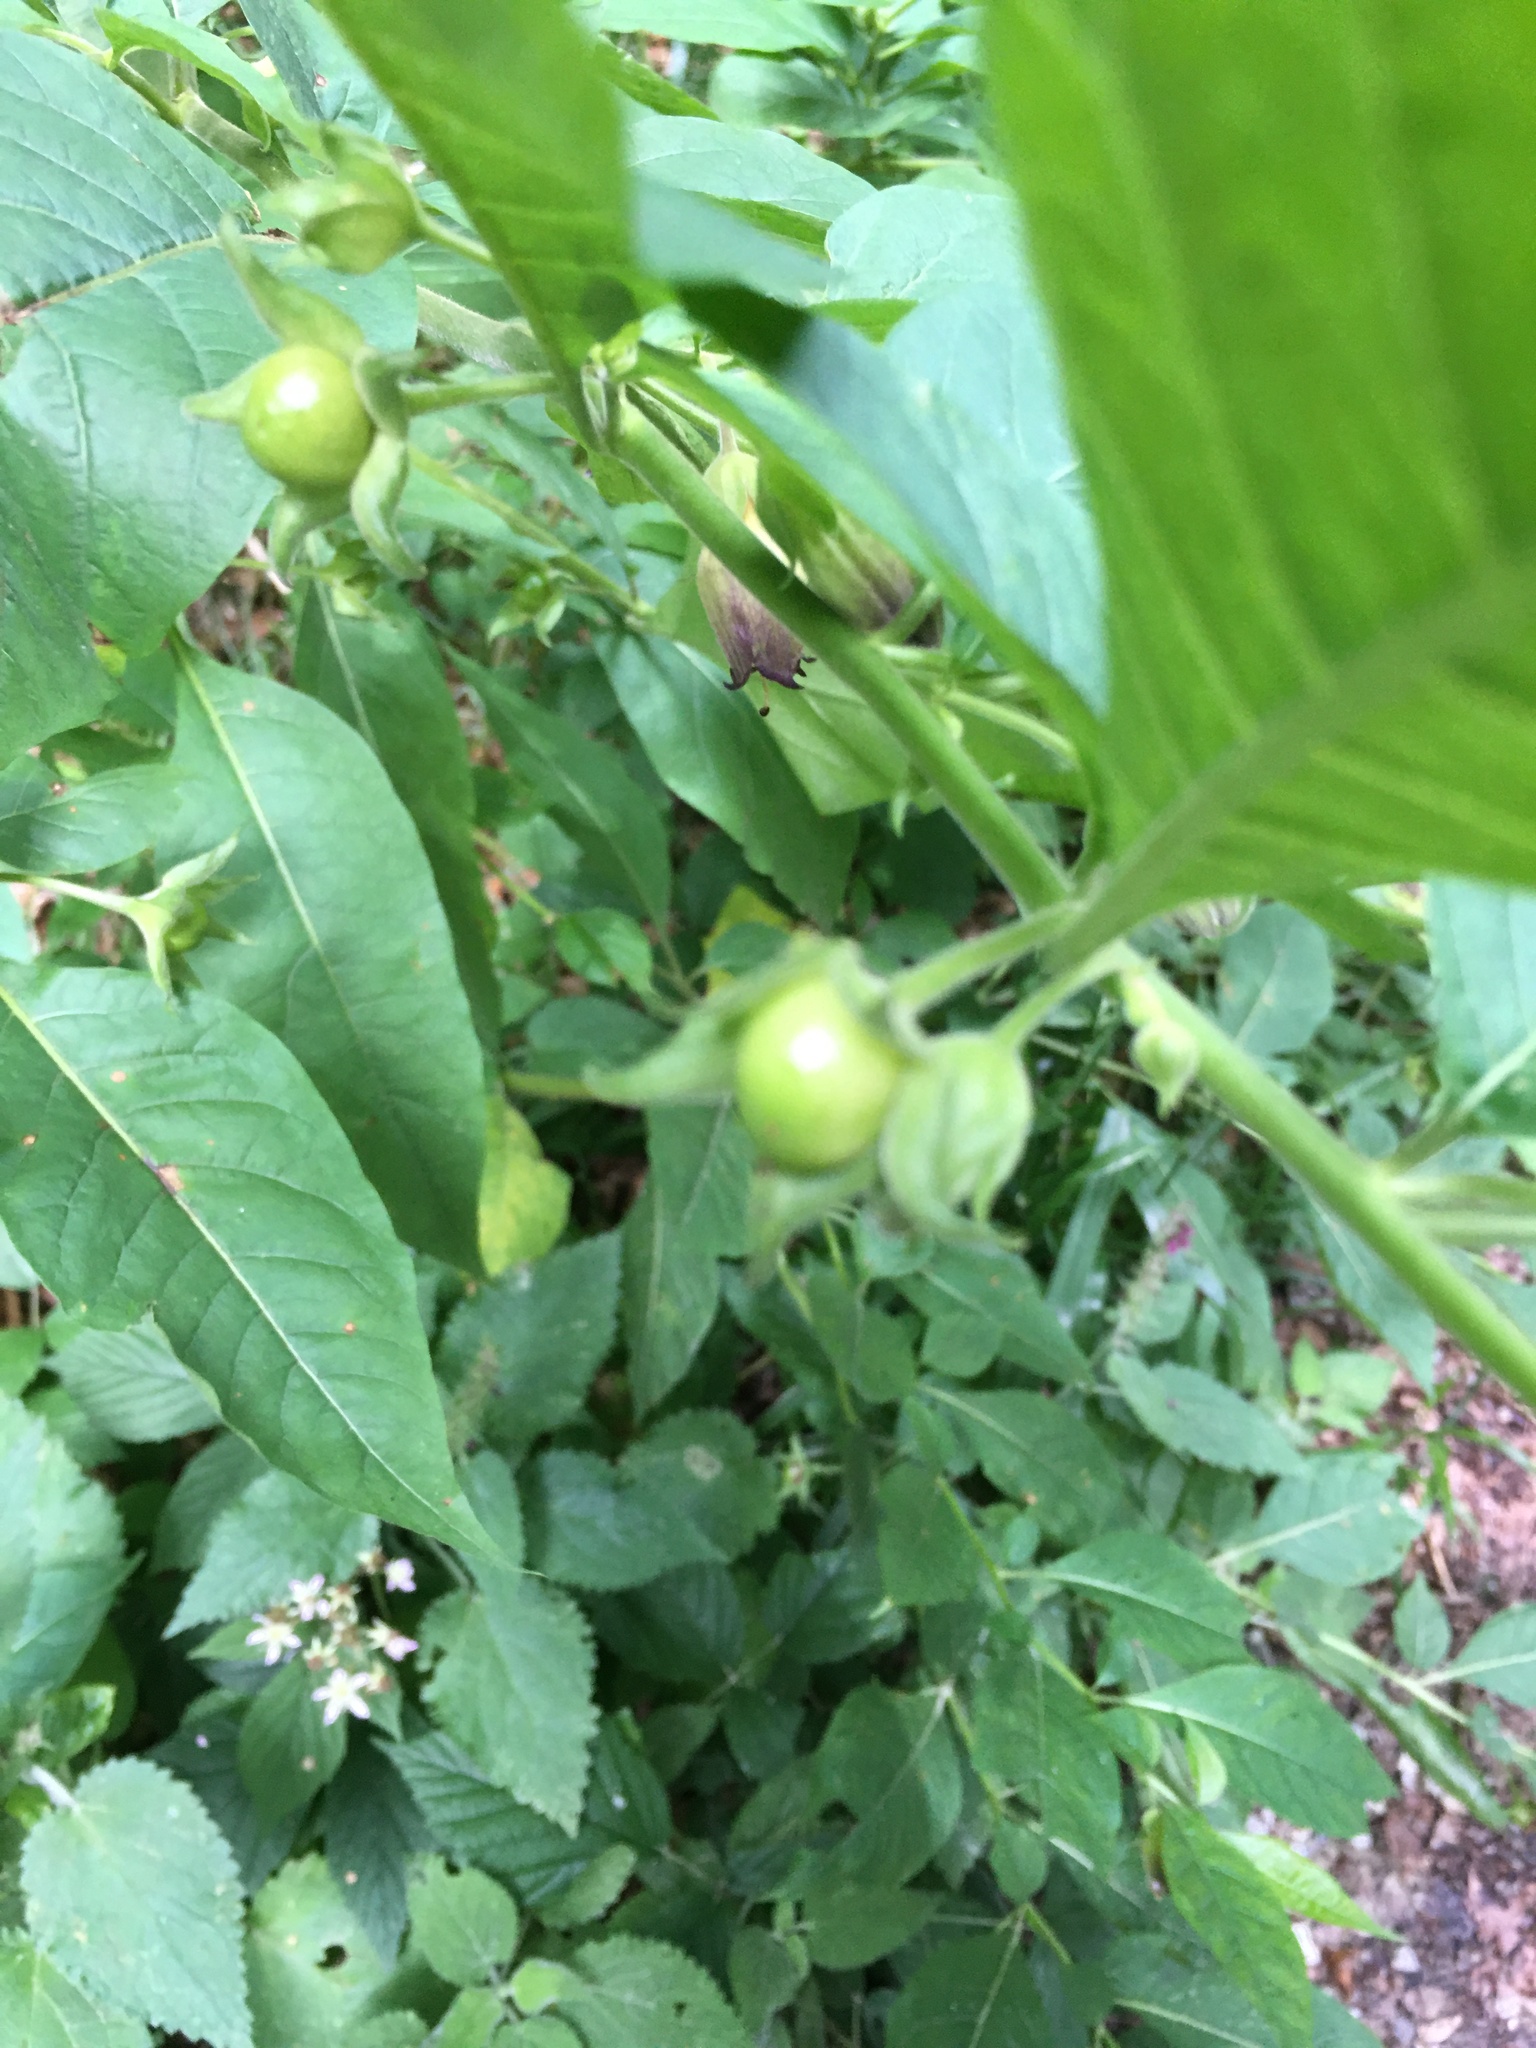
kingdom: Plantae
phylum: Tracheophyta
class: Magnoliopsida
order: Solanales
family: Solanaceae
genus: Atropa
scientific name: Atropa belladonna
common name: Deadly nightshade
